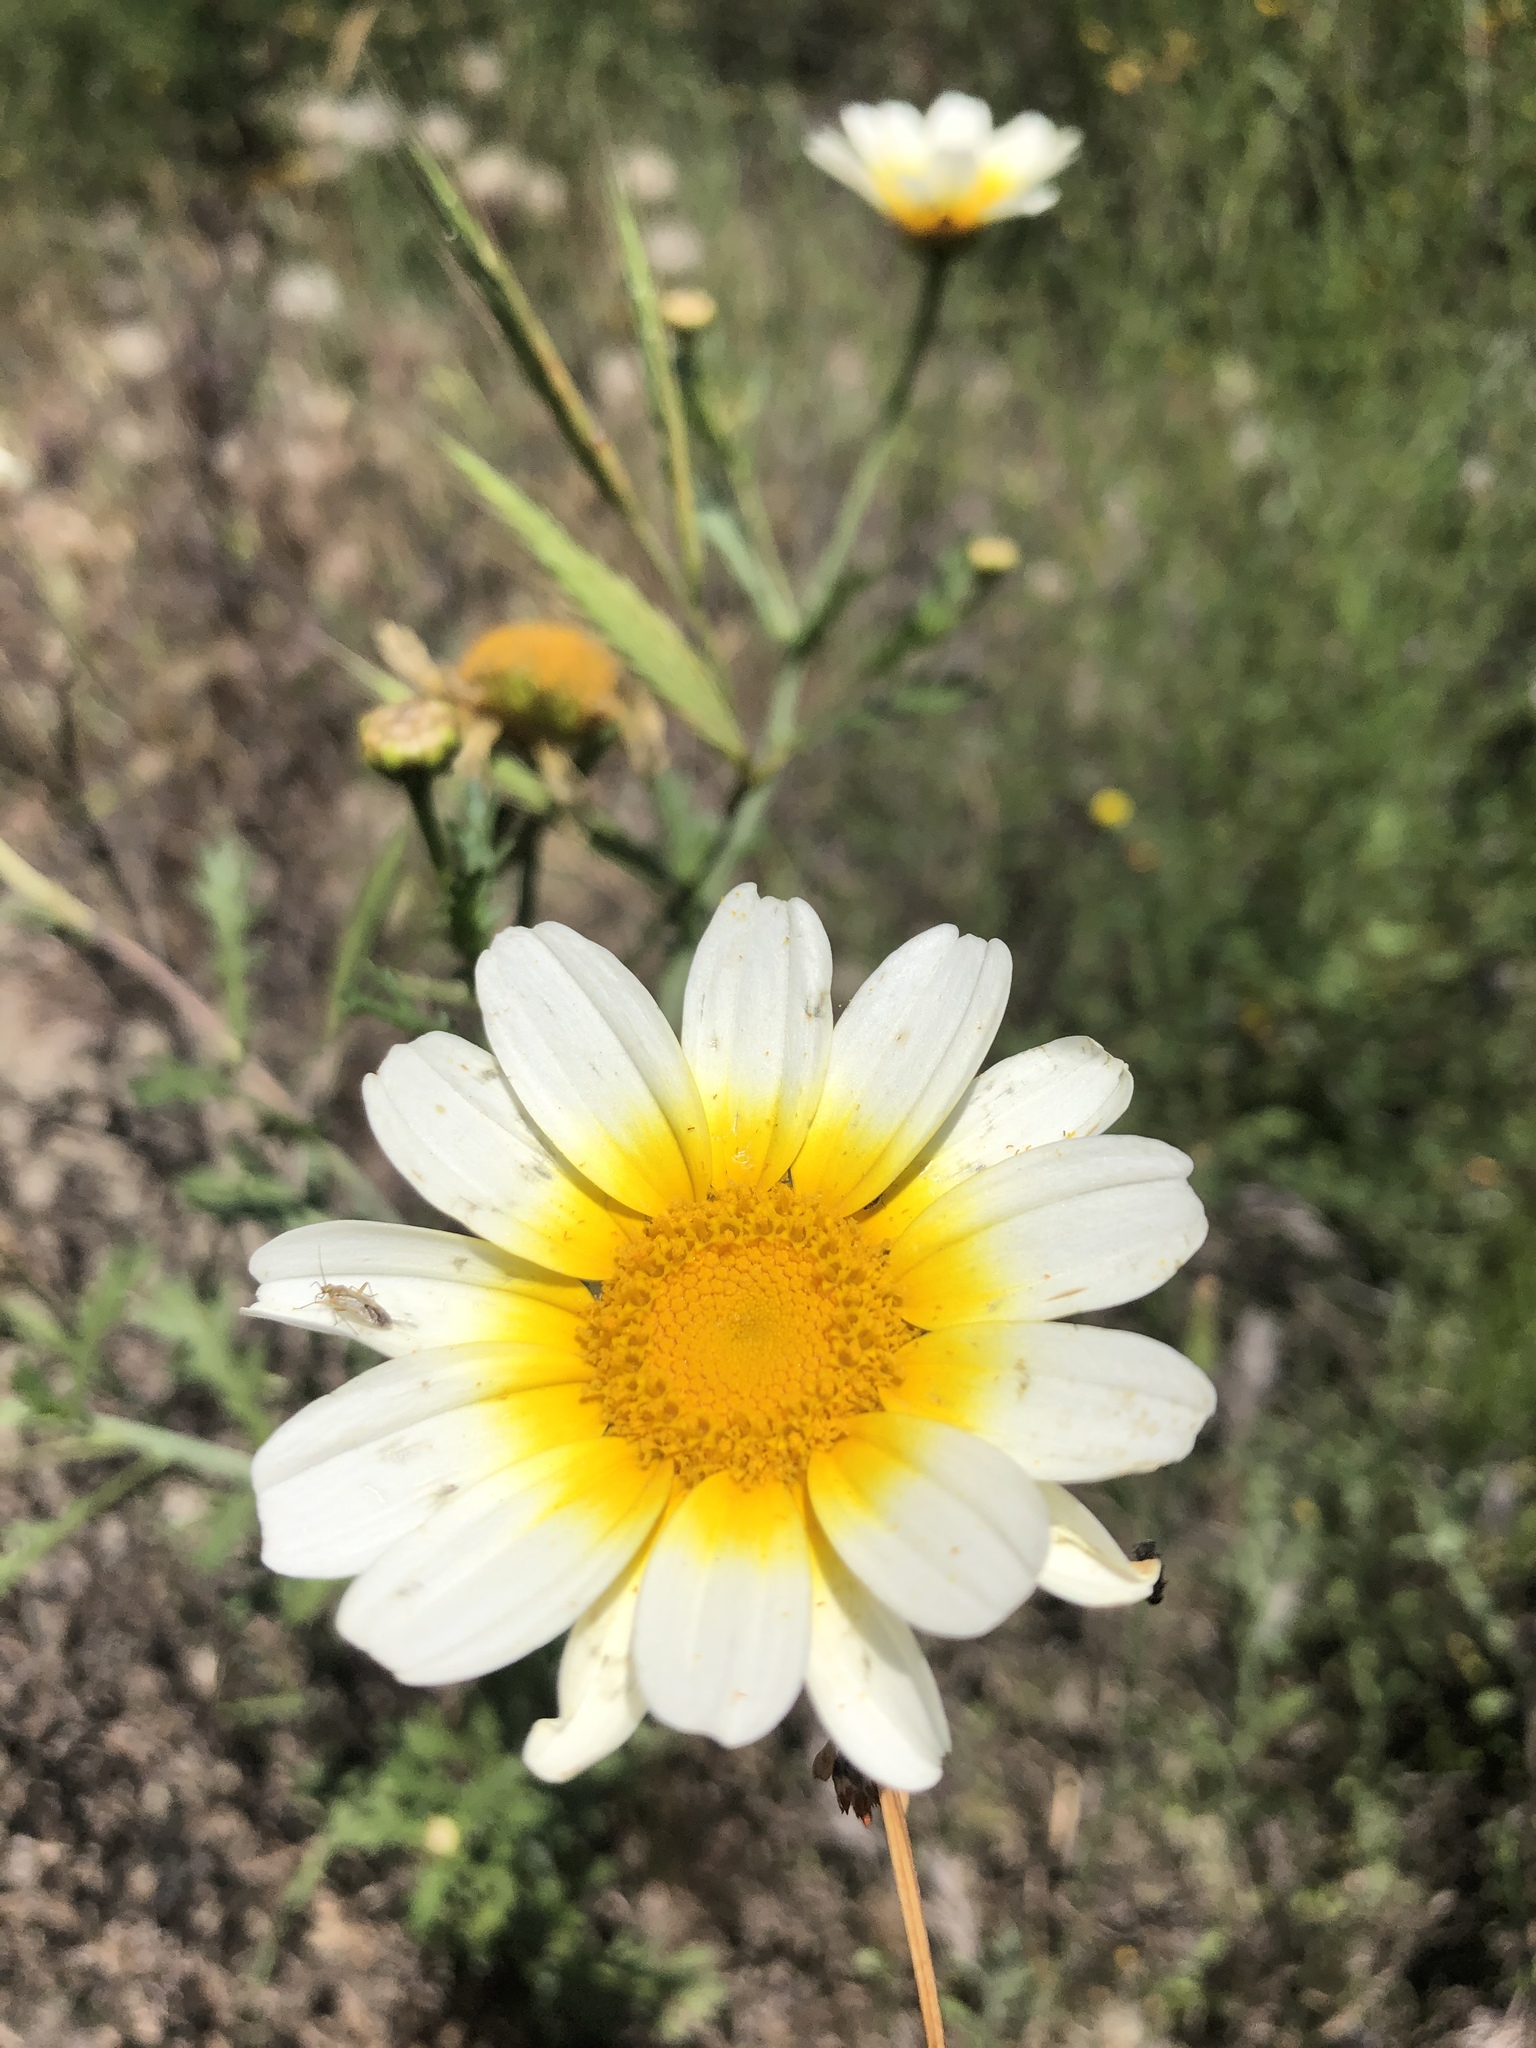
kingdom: Plantae
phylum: Tracheophyta
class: Magnoliopsida
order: Asterales
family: Asteraceae
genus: Glebionis
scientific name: Glebionis coronaria
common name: Crowndaisy
